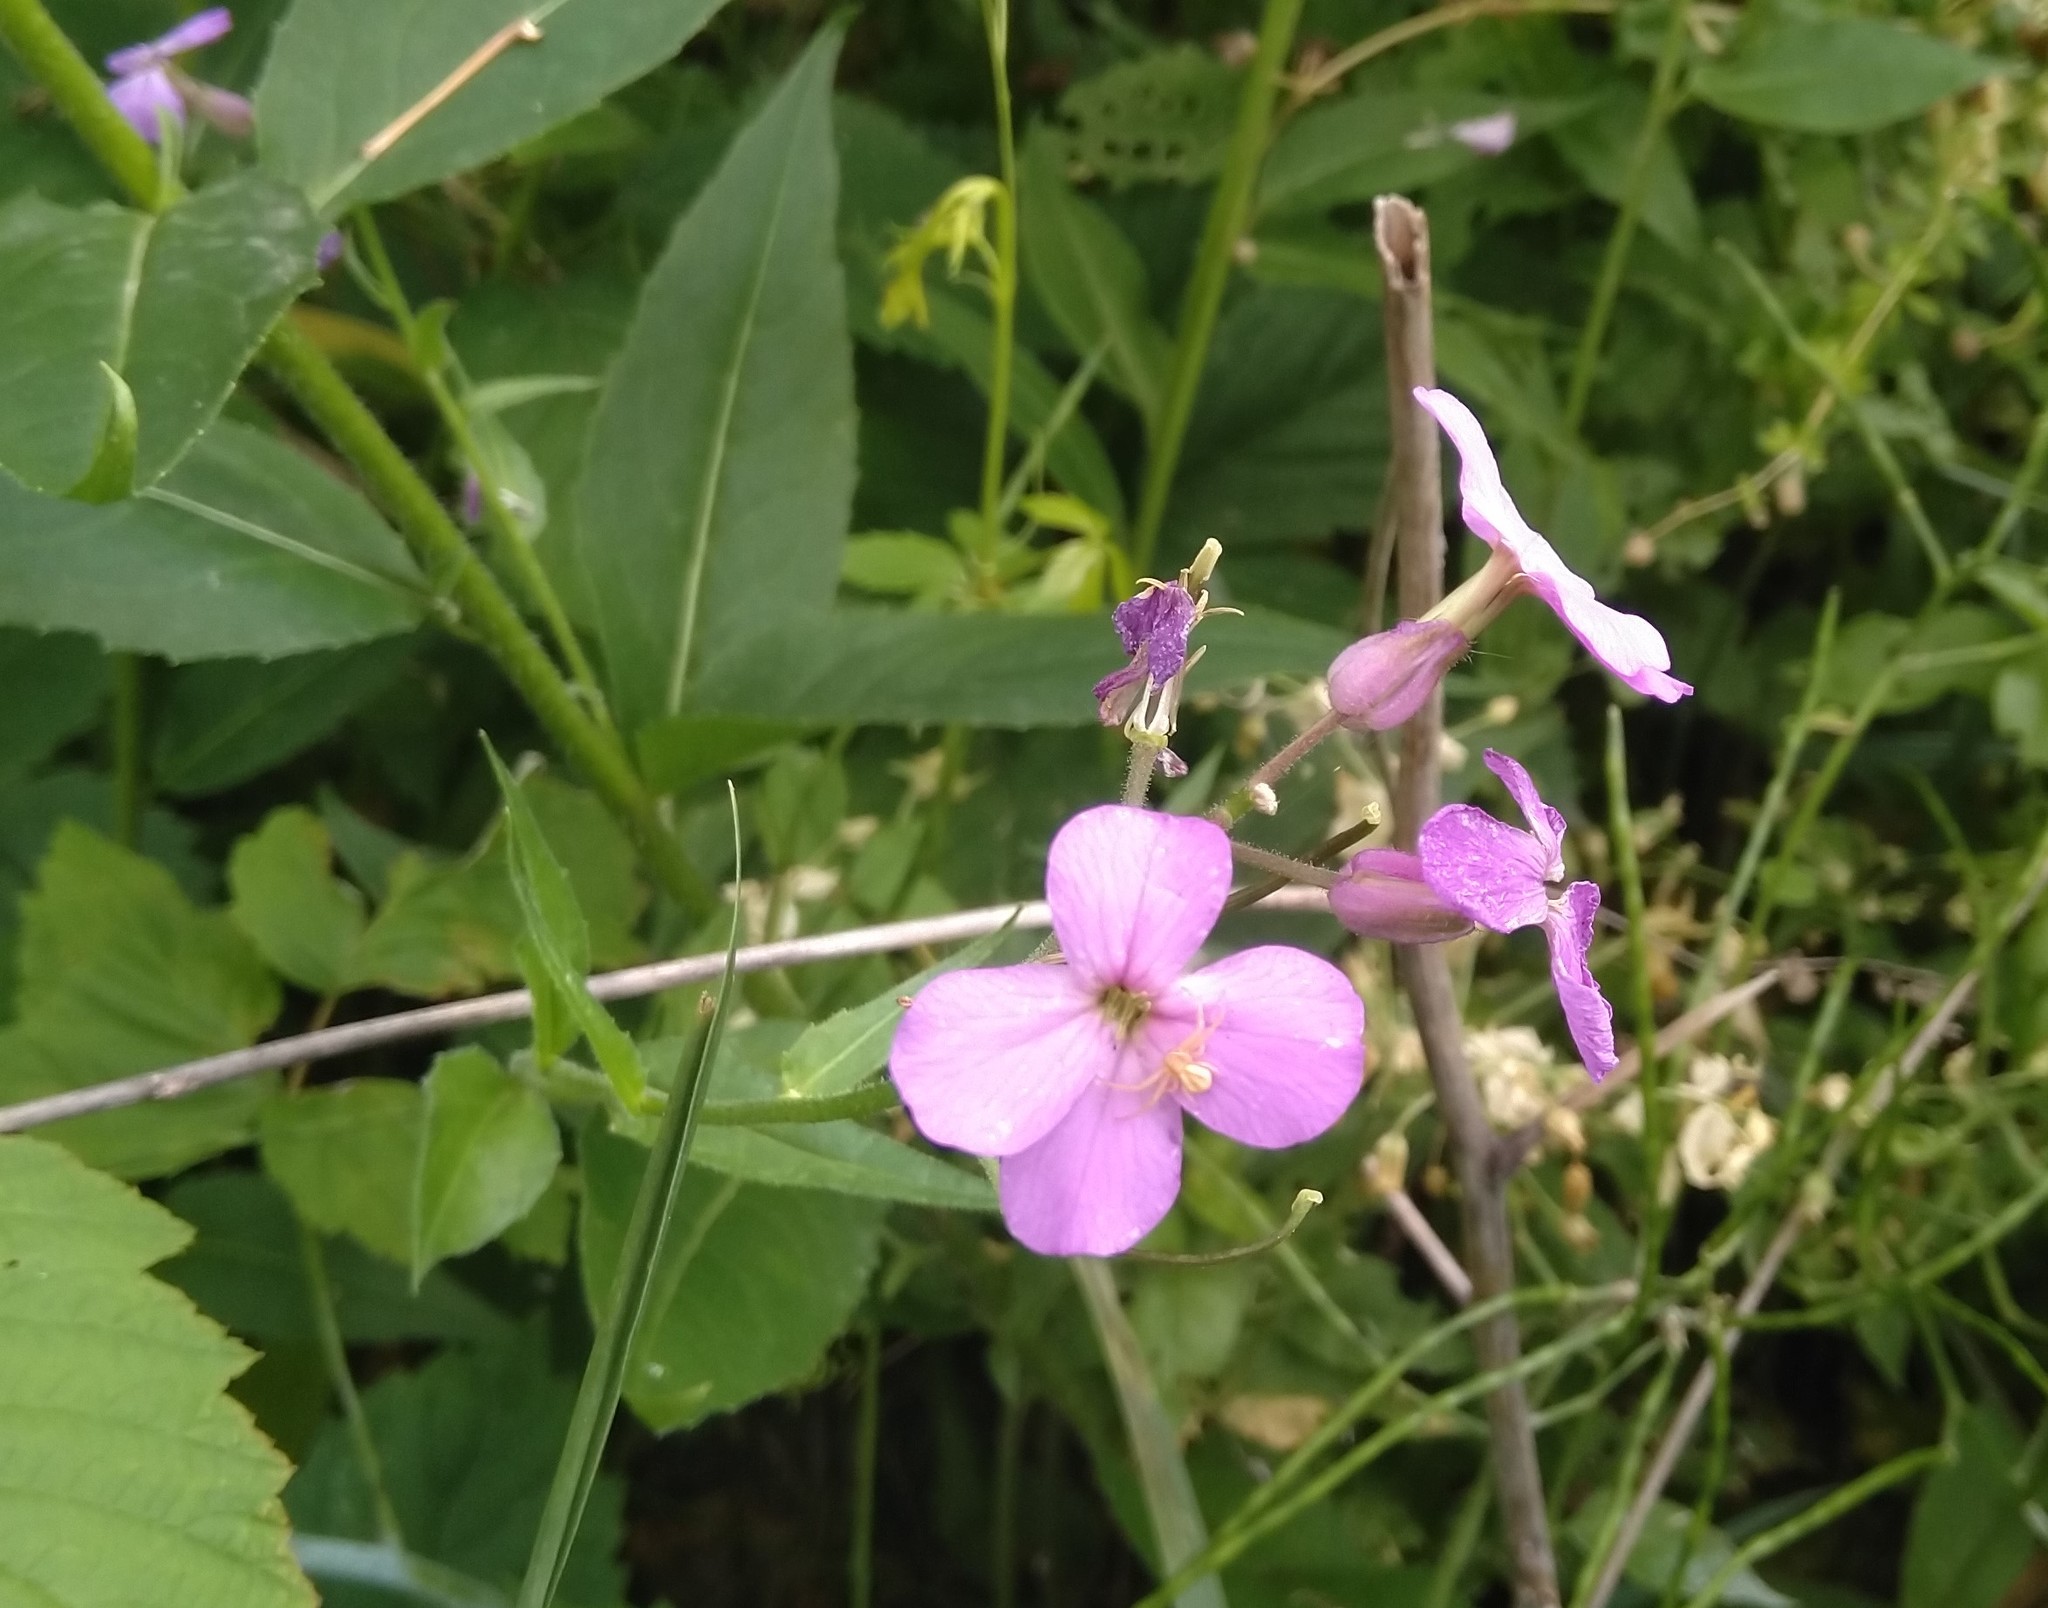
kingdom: Plantae
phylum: Tracheophyta
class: Magnoliopsida
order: Brassicales
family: Brassicaceae
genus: Hesperis
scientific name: Hesperis matronalis
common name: Dame's-violet
